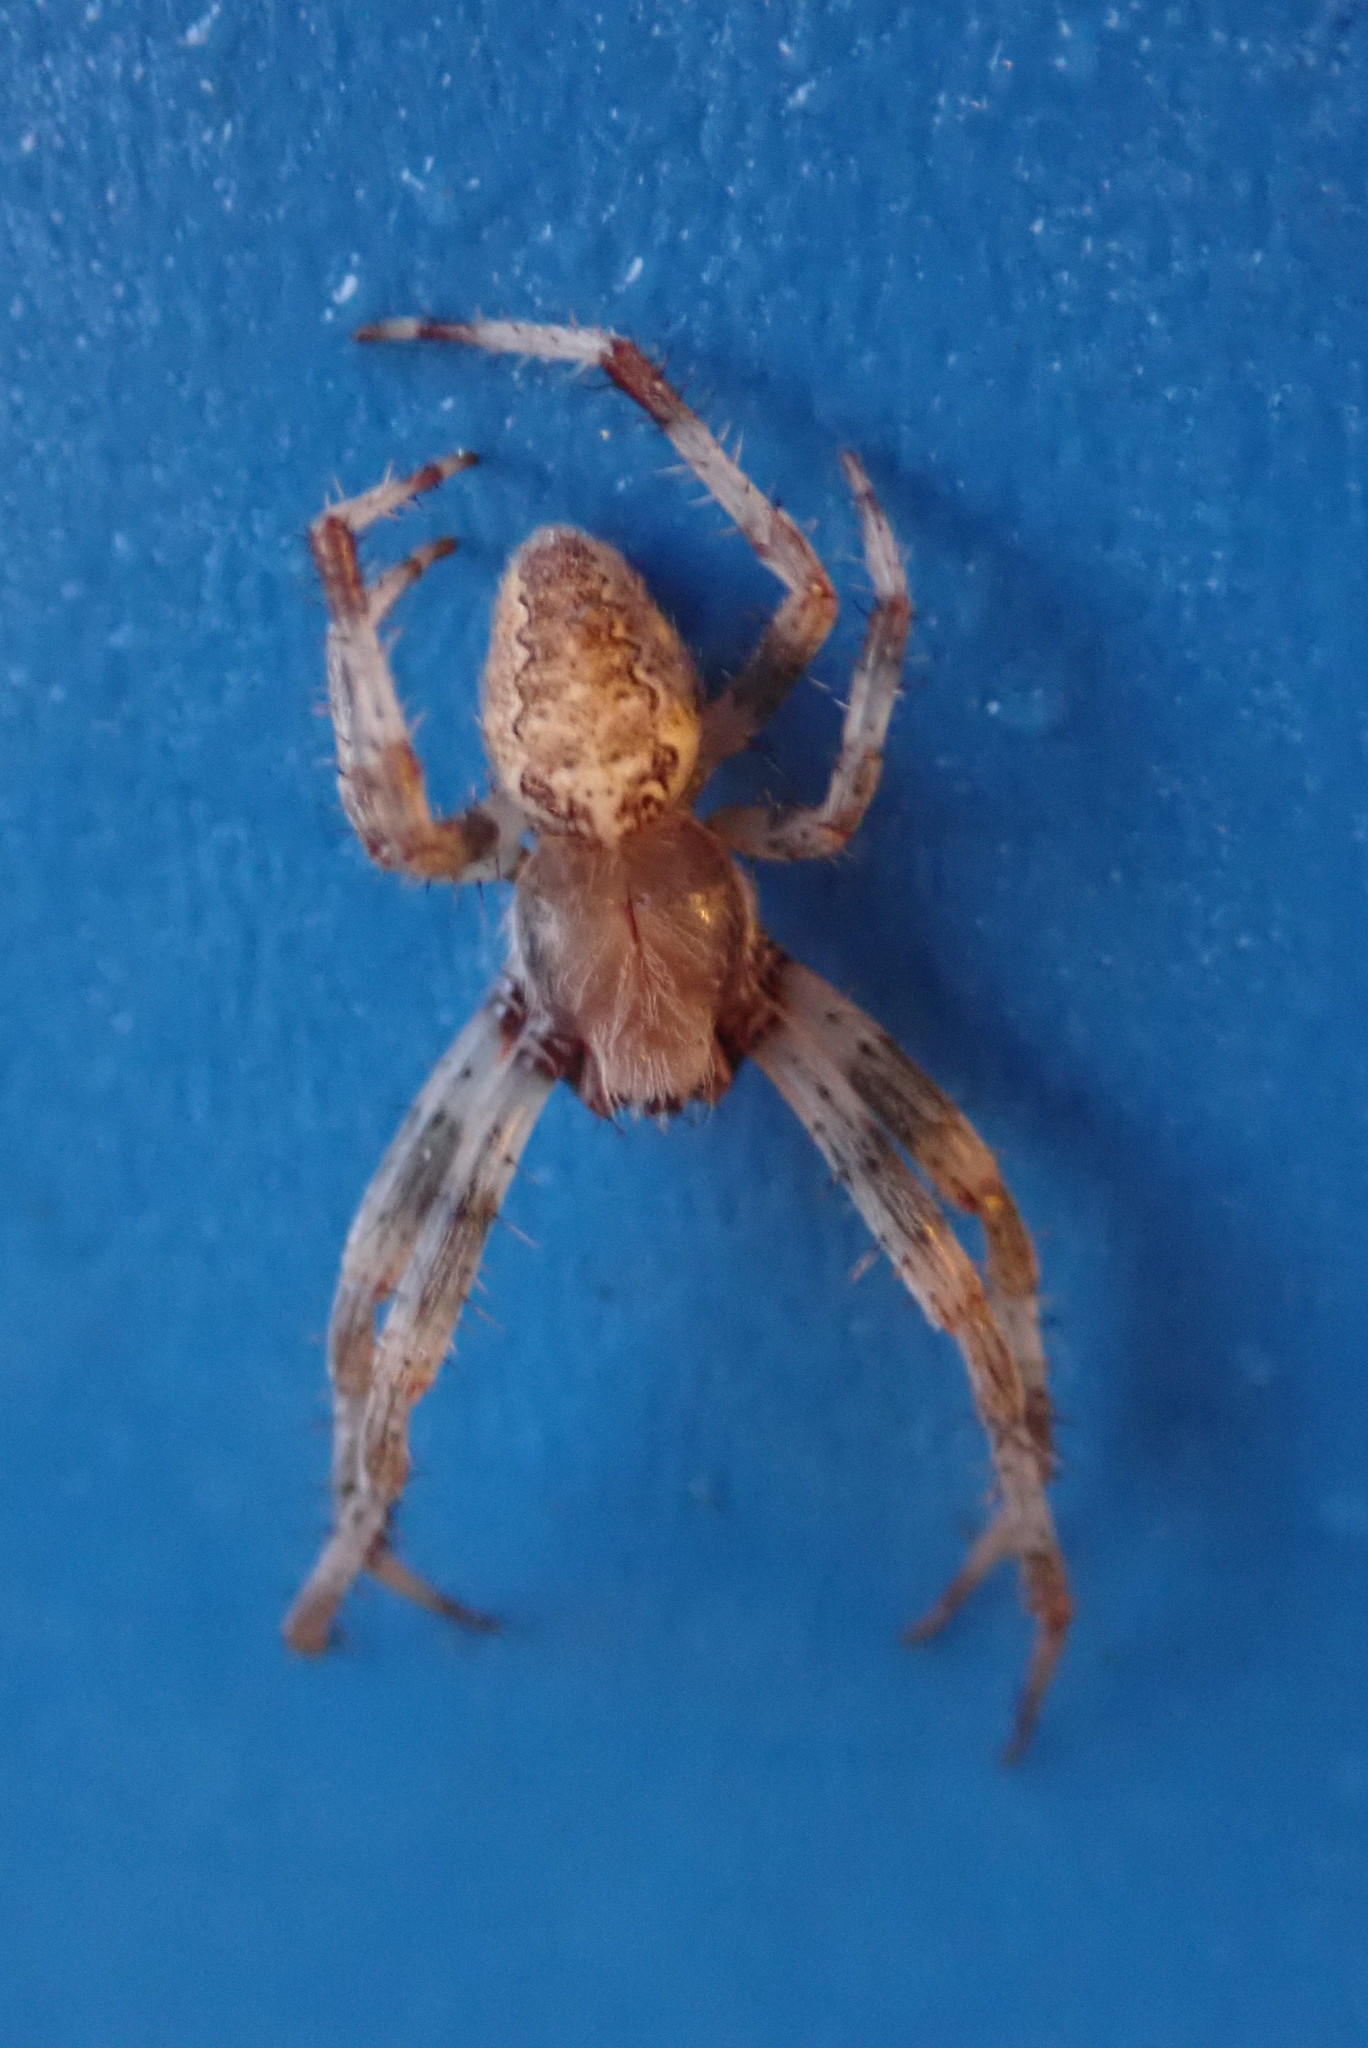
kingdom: Animalia
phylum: Arthropoda
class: Arachnida
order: Araneae
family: Araneidae
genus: Araneus
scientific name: Araneus marmoreus
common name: Marbled orbweaver
